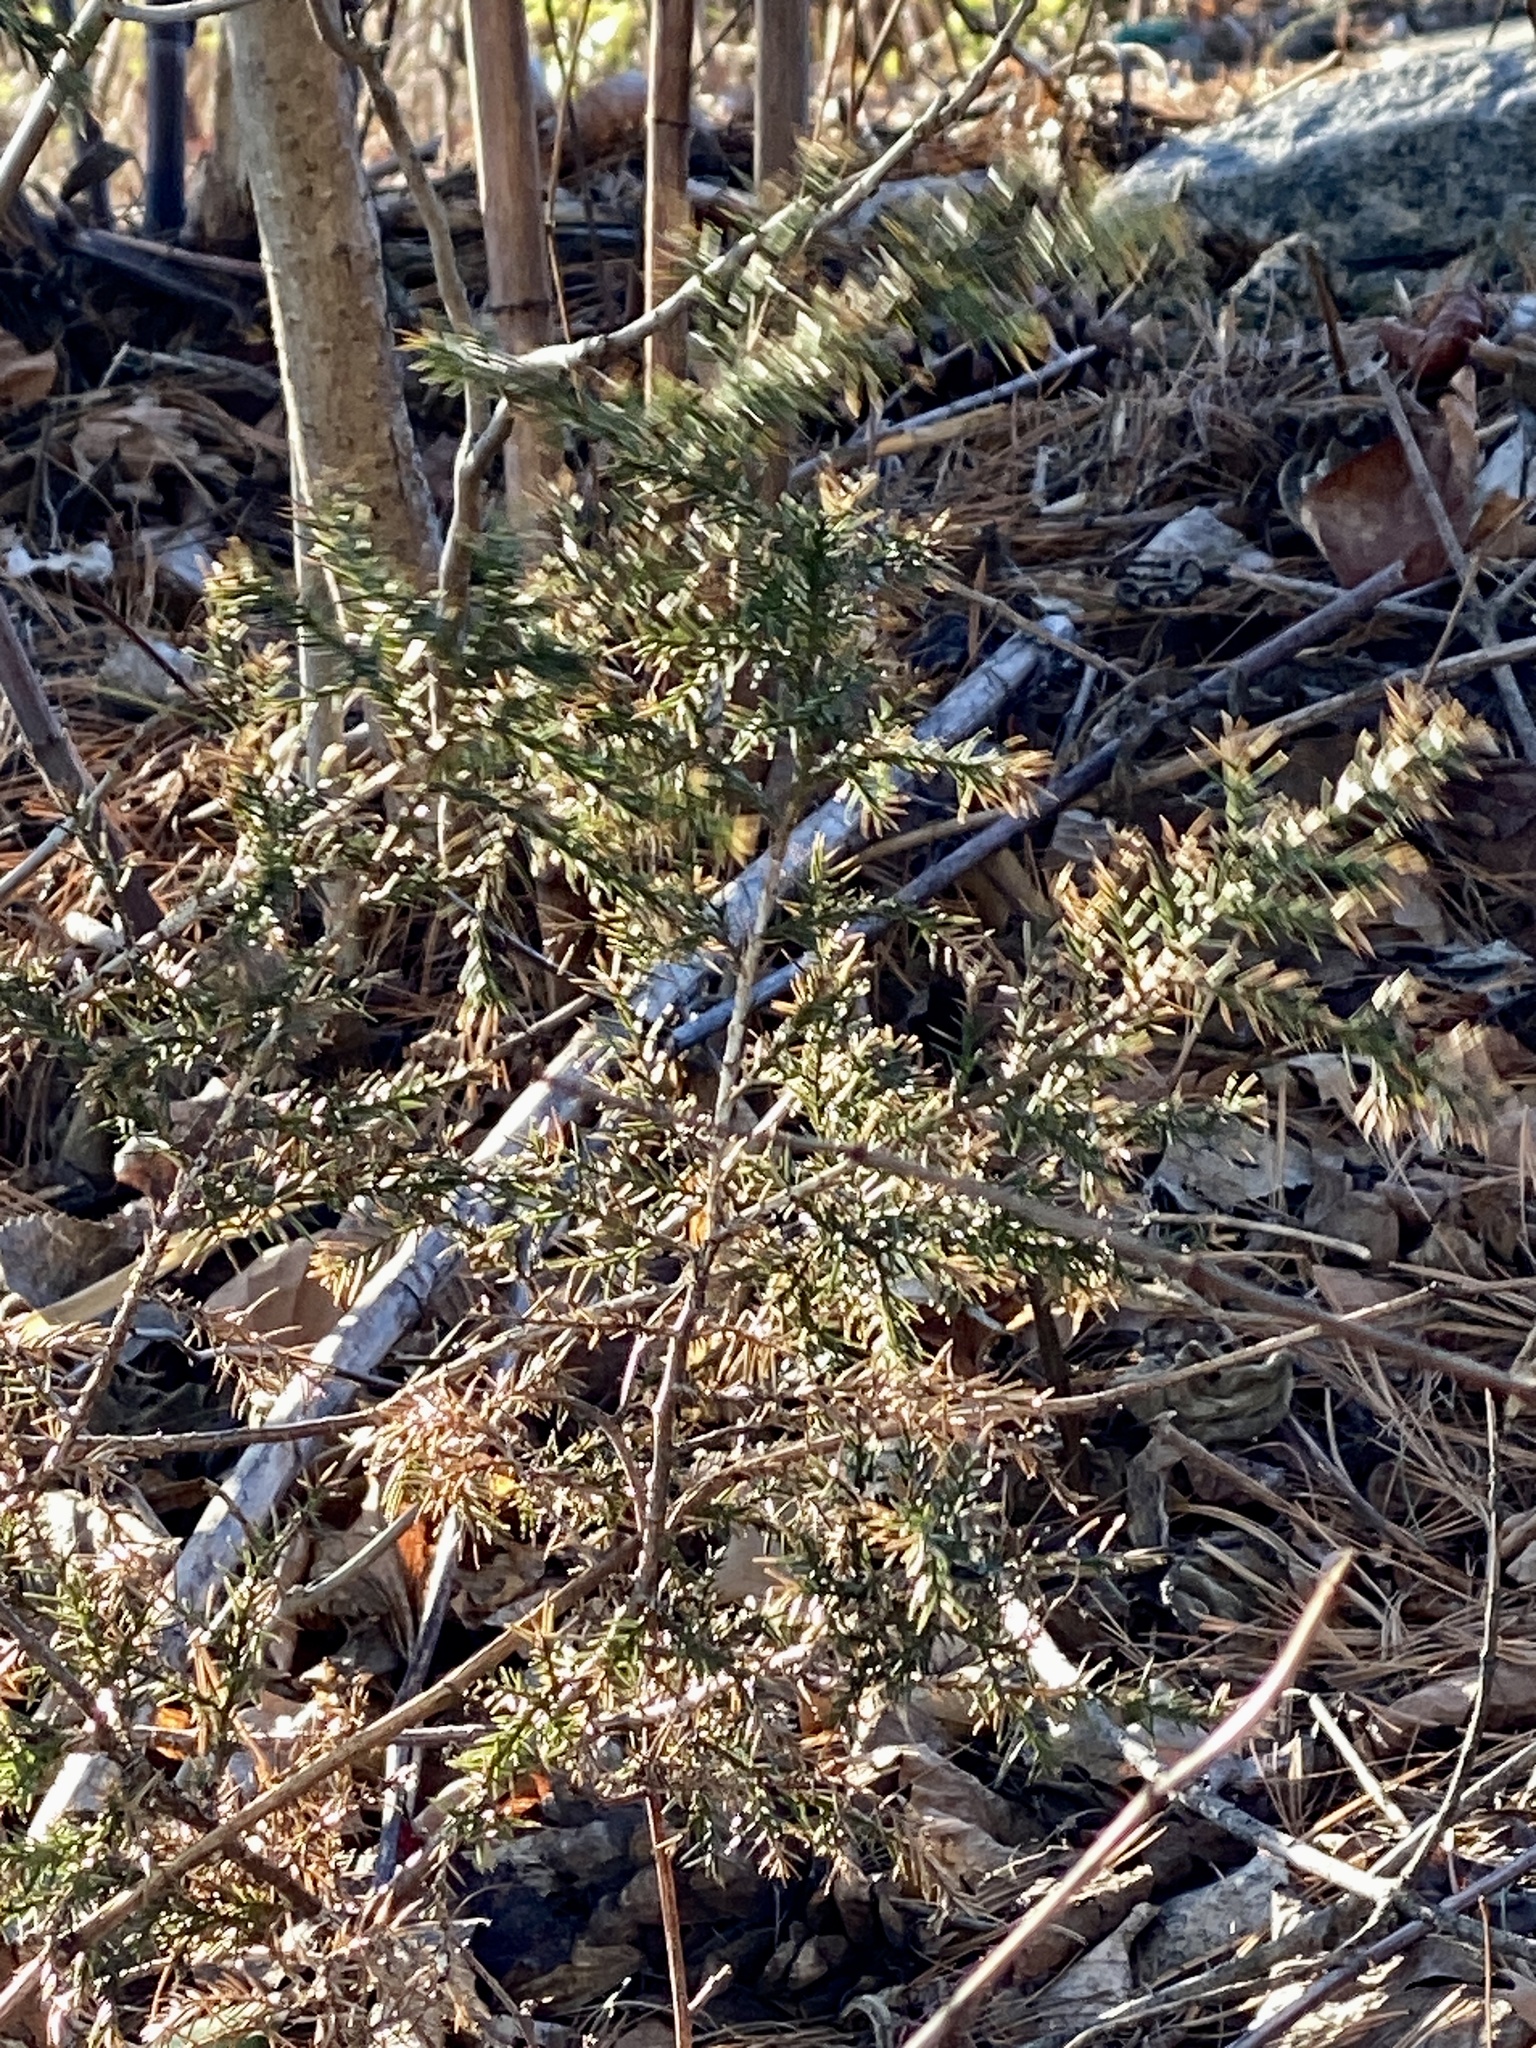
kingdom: Plantae
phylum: Tracheophyta
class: Pinopsida
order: Pinales
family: Cupressaceae
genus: Juniperus
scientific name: Juniperus virginiana
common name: Red juniper
